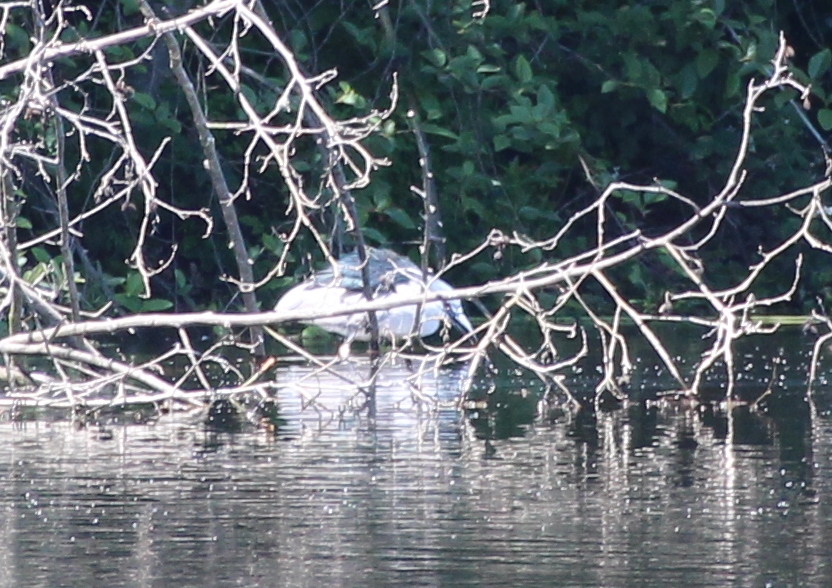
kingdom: Animalia
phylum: Chordata
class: Aves
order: Pelecaniformes
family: Ardeidae
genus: Nycticorax
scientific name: Nycticorax nycticorax
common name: Black-crowned night heron
